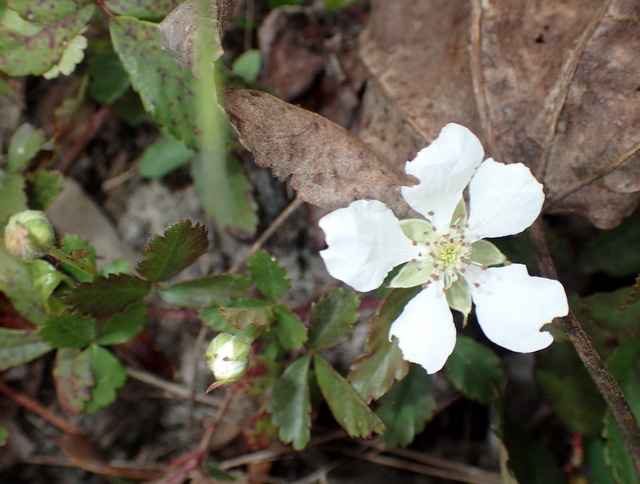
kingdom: Plantae
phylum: Tracheophyta
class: Magnoliopsida
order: Rosales
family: Rosaceae
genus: Rubus
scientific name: Rubus trivialis
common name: Southern dewberry
